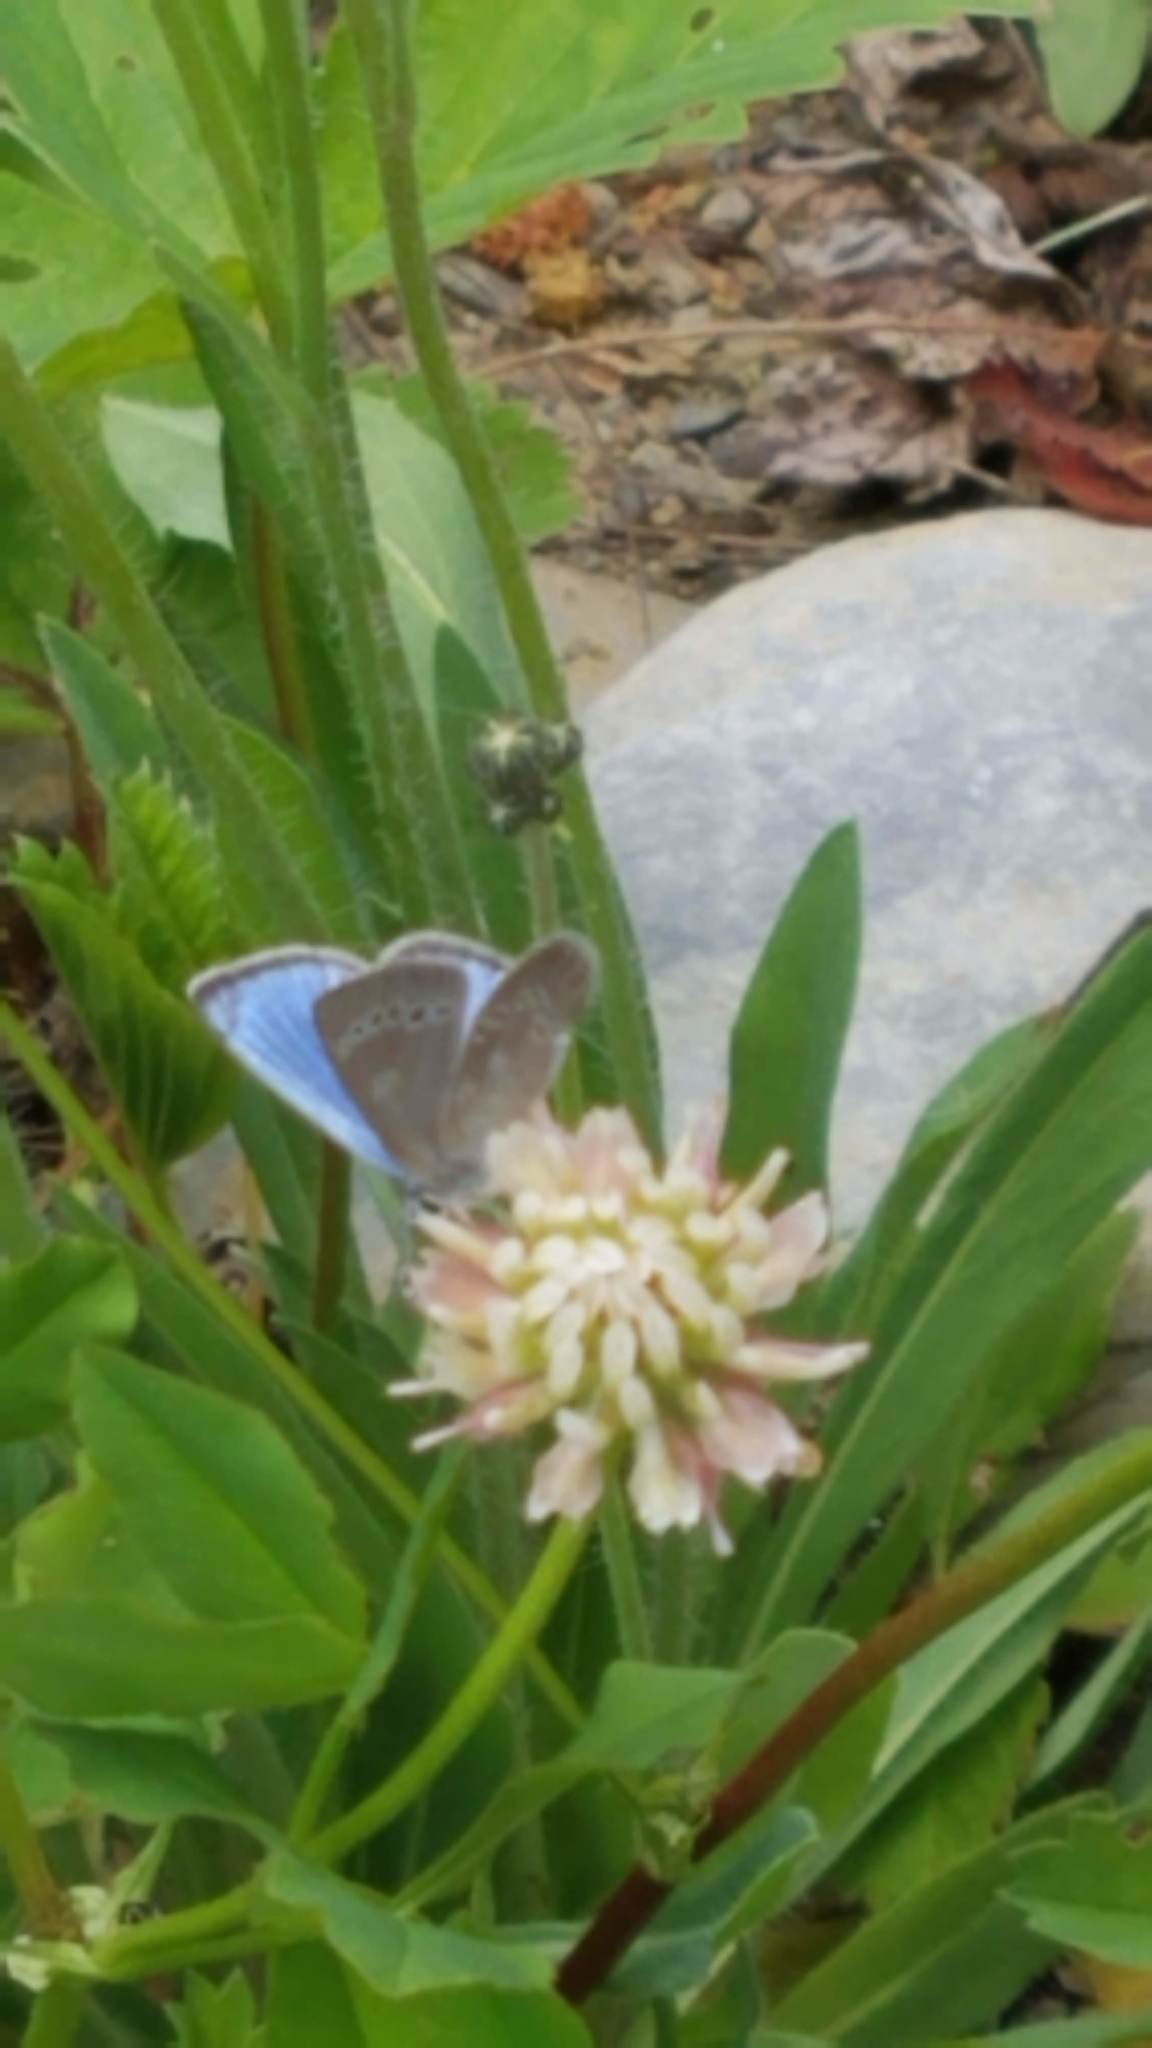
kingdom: Animalia
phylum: Arthropoda
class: Insecta
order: Lepidoptera
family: Lycaenidae
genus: Glaucopsyche
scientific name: Glaucopsyche lygdamus
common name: Silvery blue
